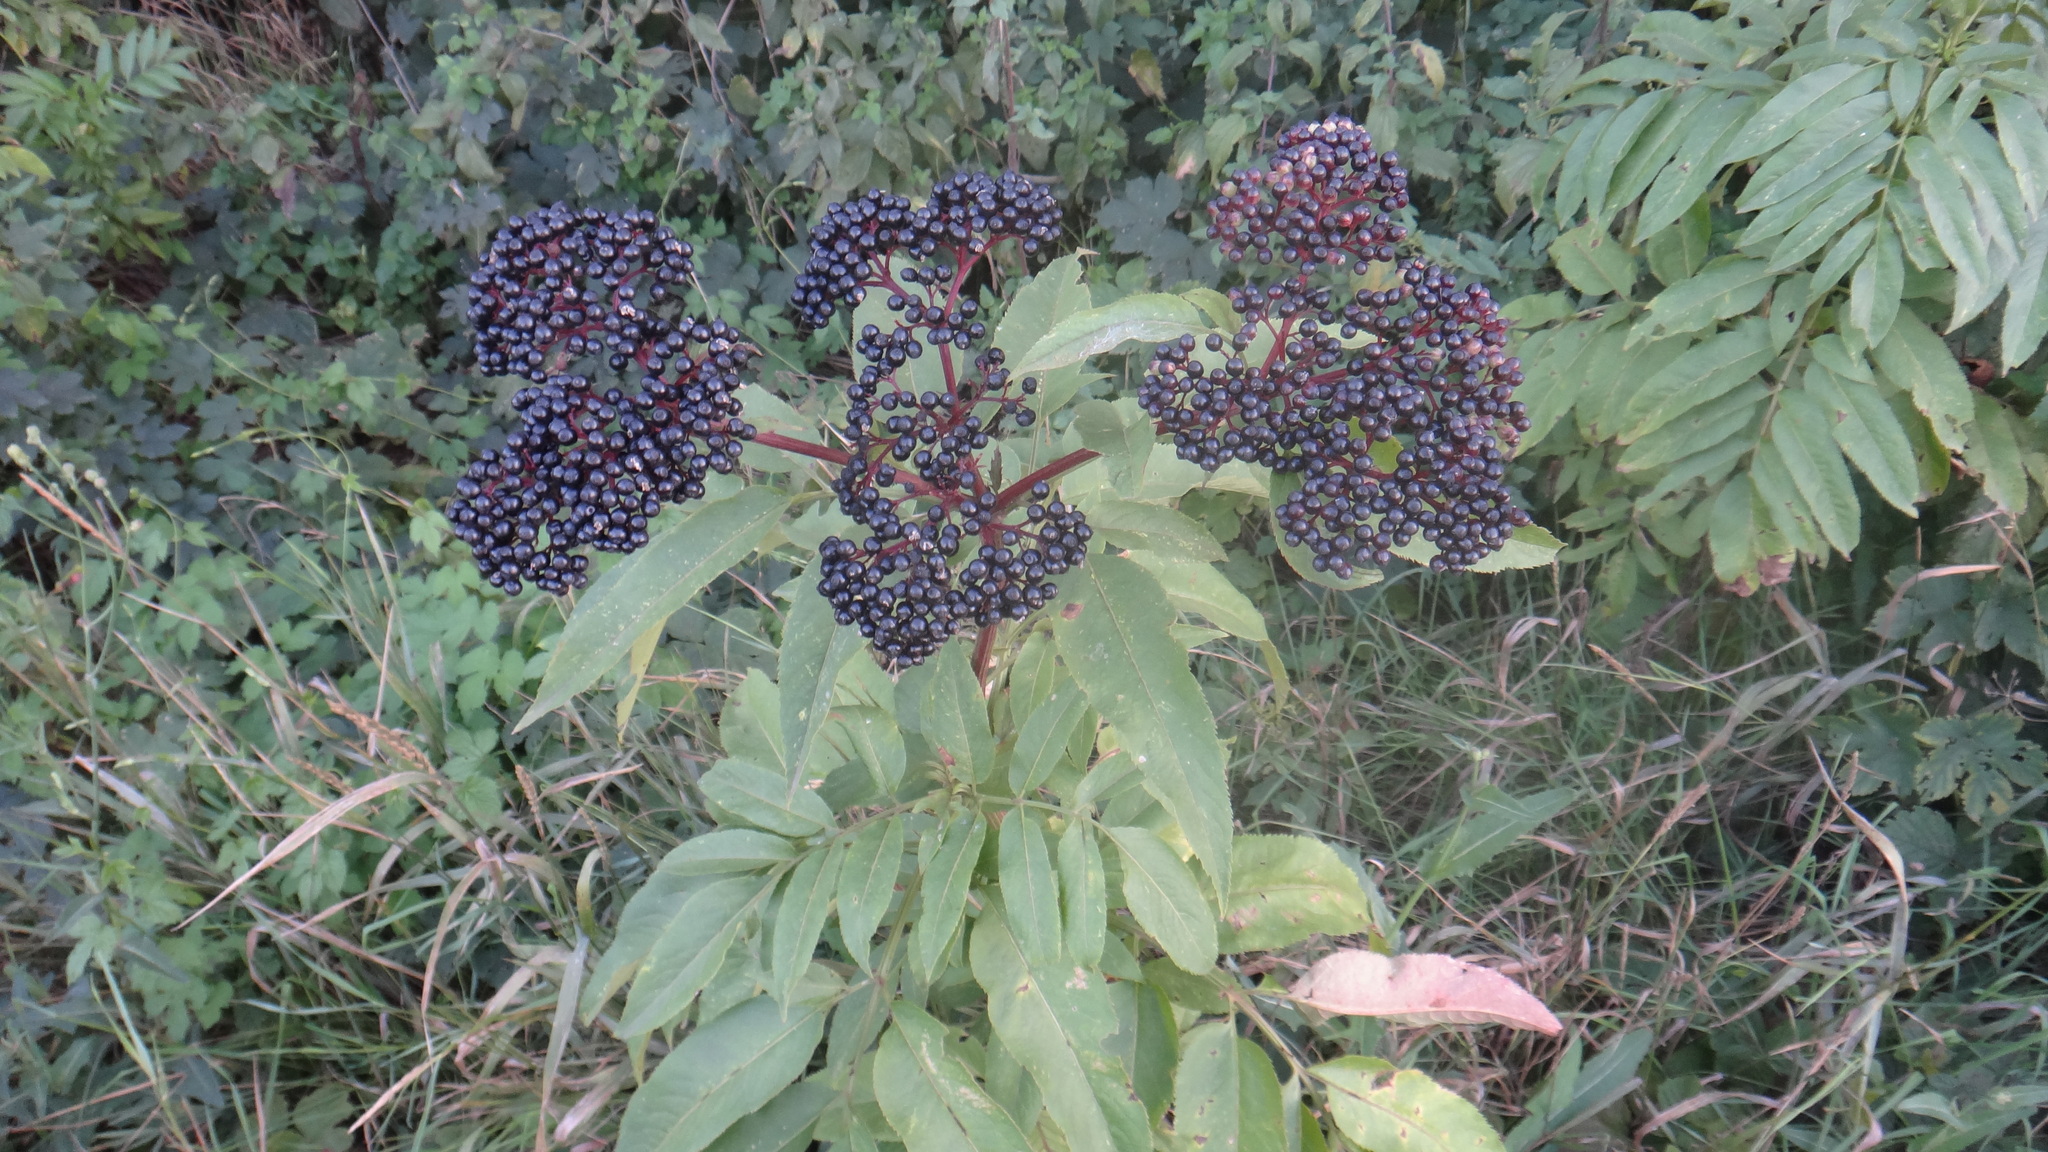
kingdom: Plantae
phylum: Tracheophyta
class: Magnoliopsida
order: Dipsacales
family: Viburnaceae
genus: Sambucus
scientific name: Sambucus ebulus
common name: Dwarf elder
